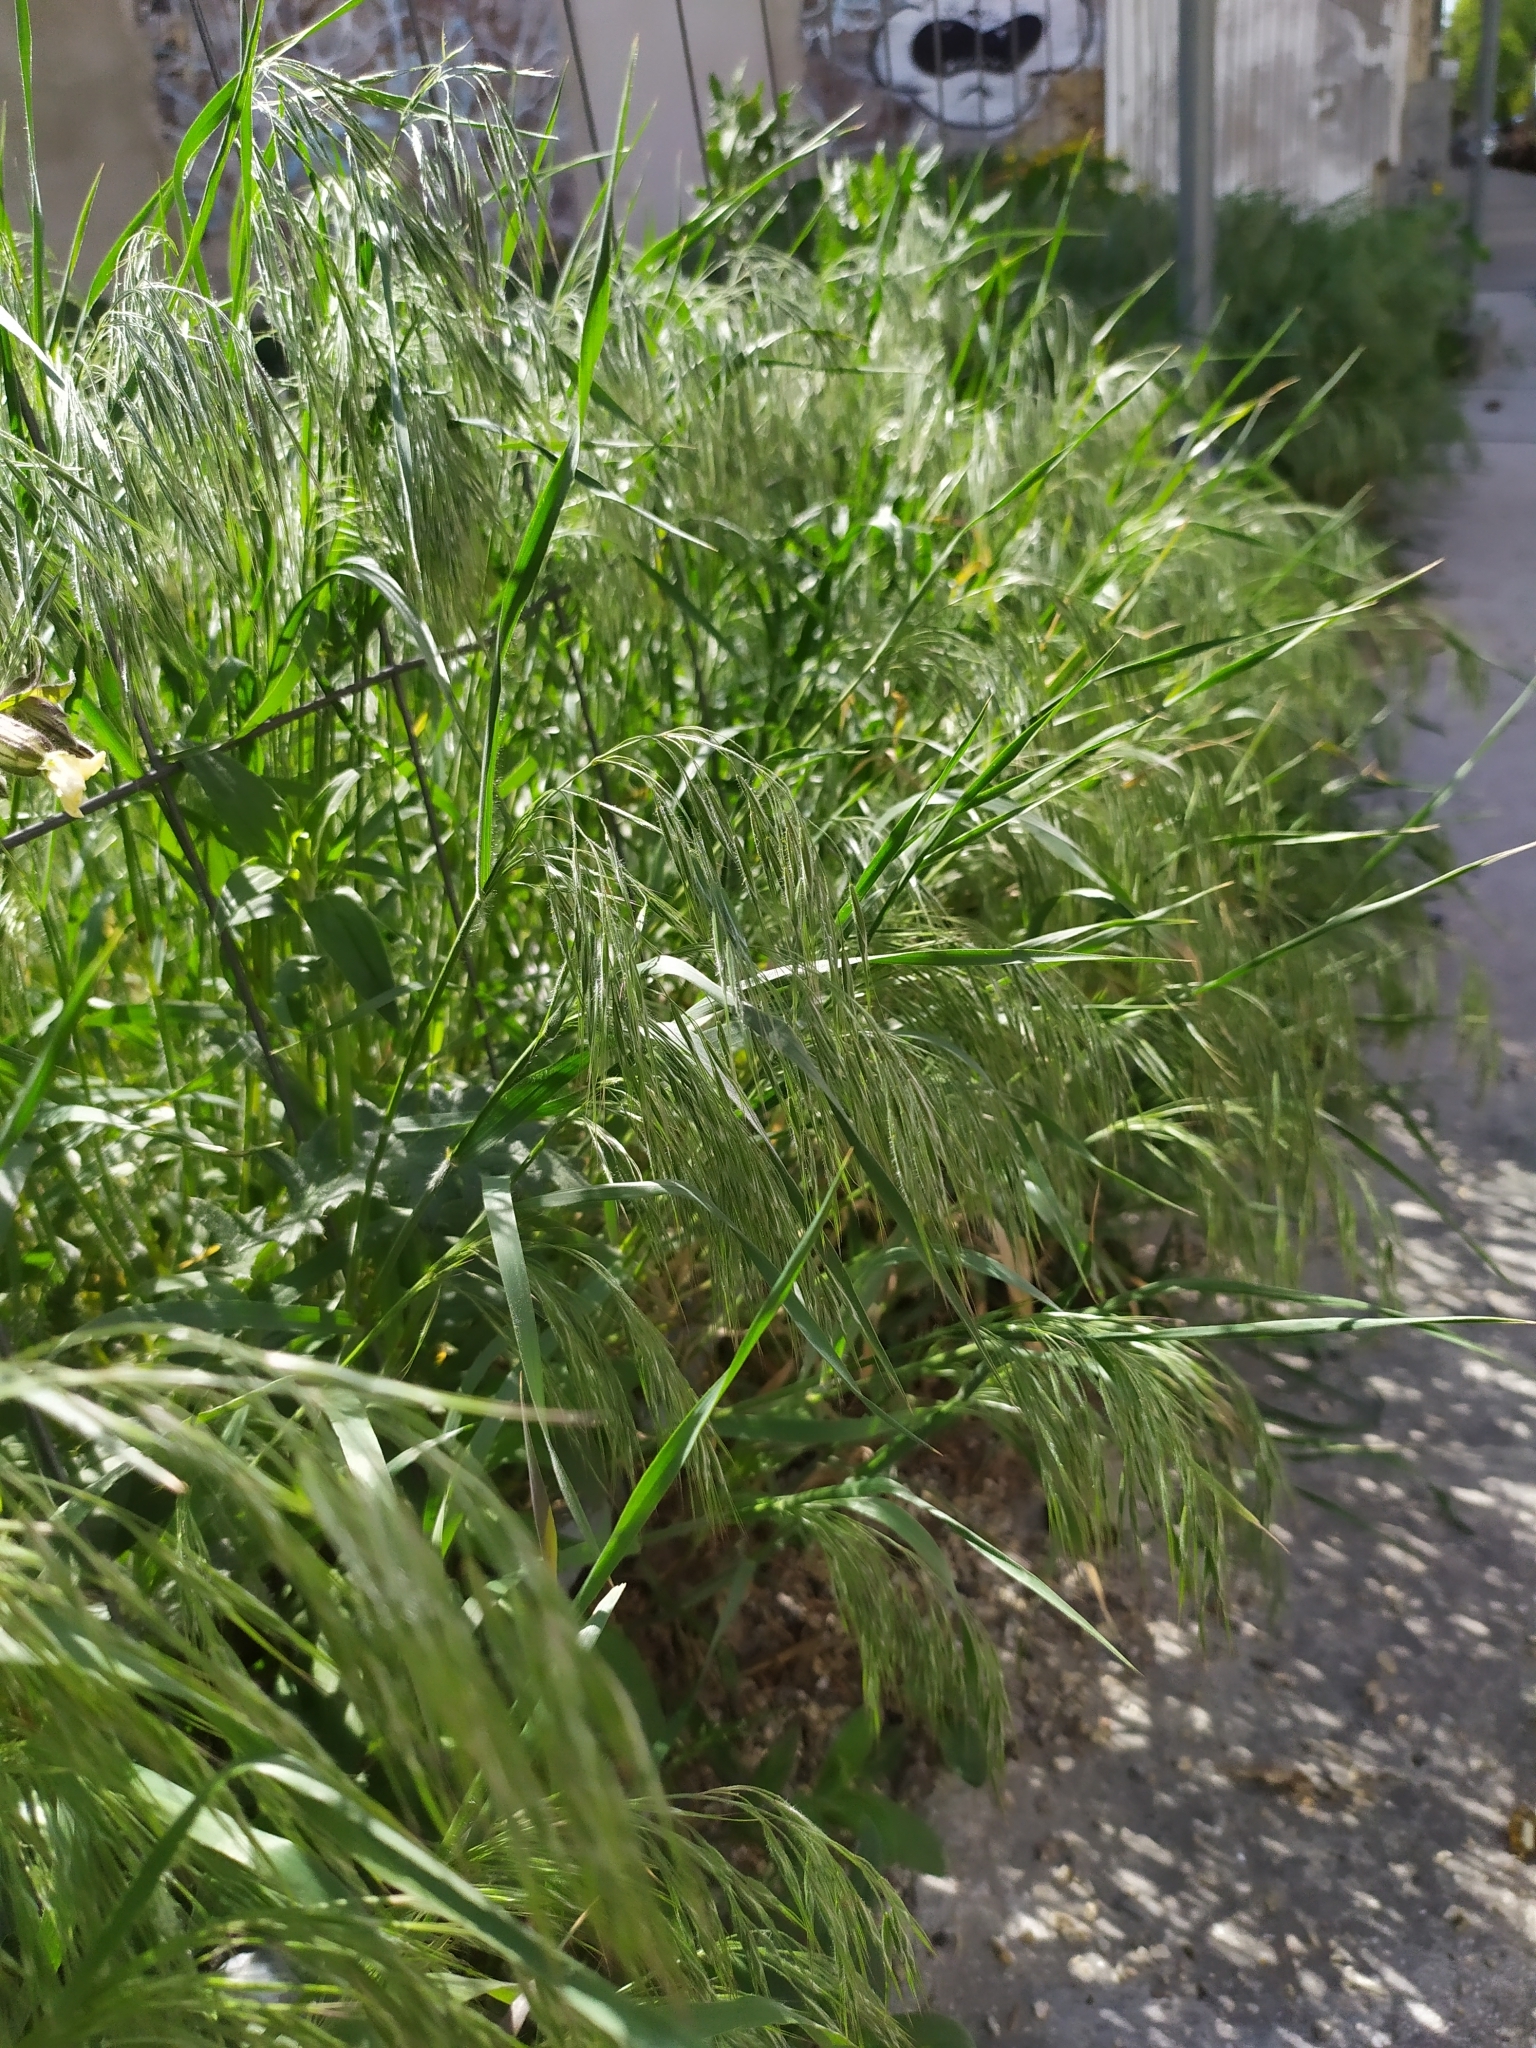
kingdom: Plantae
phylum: Tracheophyta
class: Liliopsida
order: Poales
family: Poaceae
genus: Bromus
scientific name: Bromus tectorum
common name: Cheatgrass
